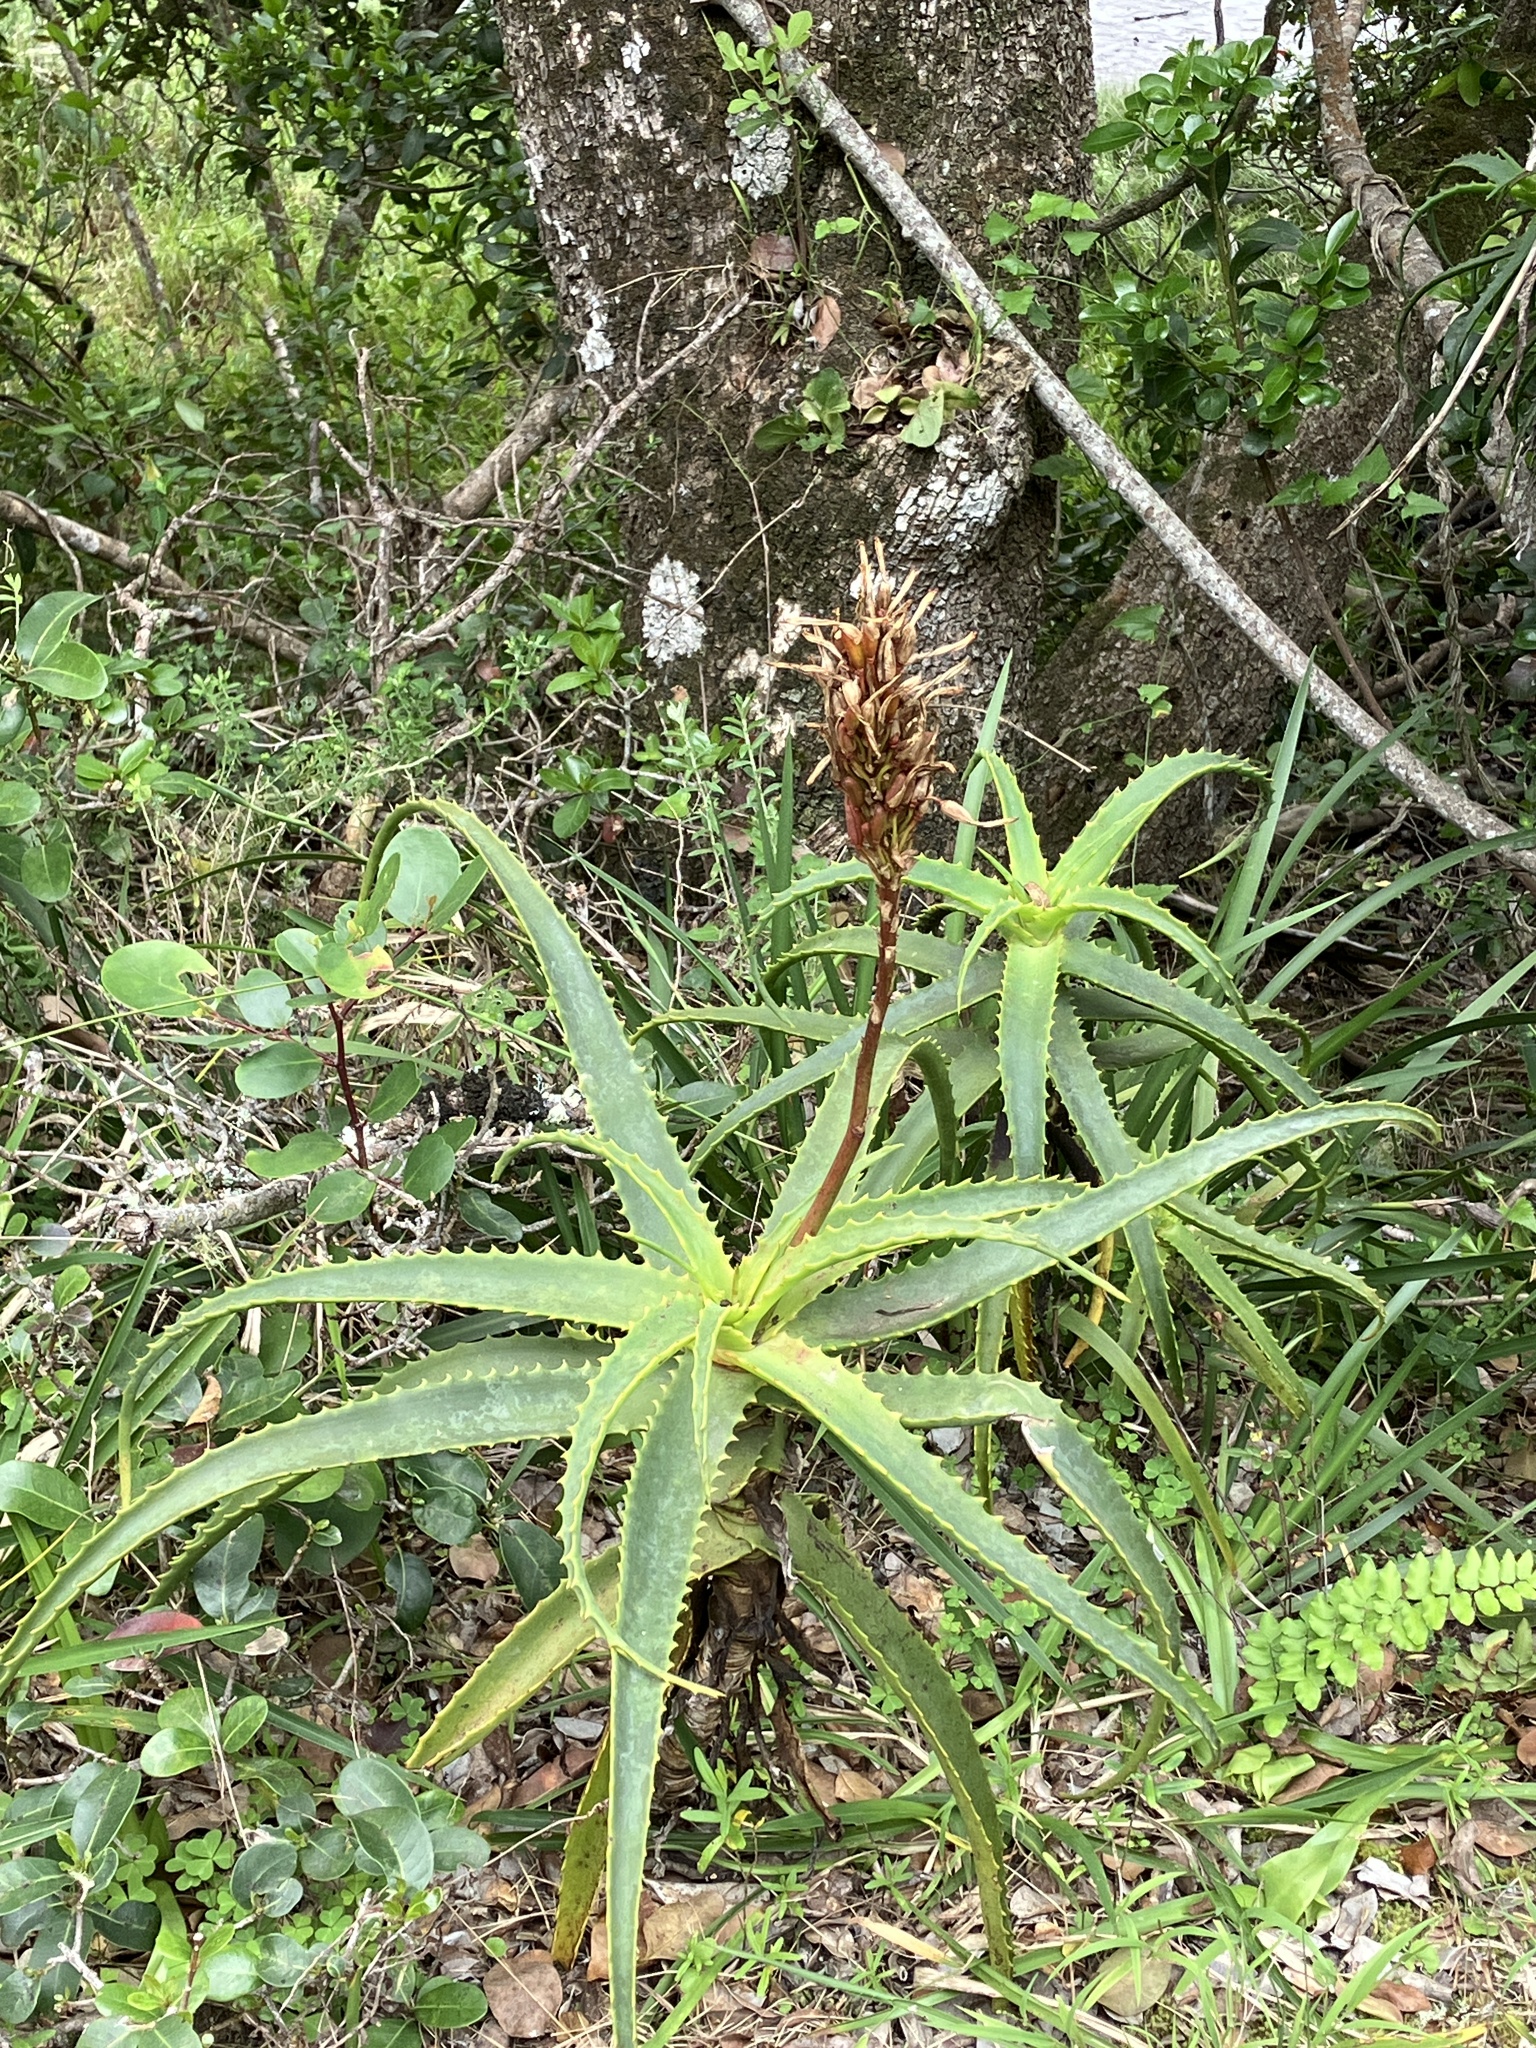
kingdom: Plantae
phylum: Tracheophyta
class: Liliopsida
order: Asparagales
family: Asphodelaceae
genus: Aloe
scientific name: Aloe arborescens
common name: Candelabra aloe
